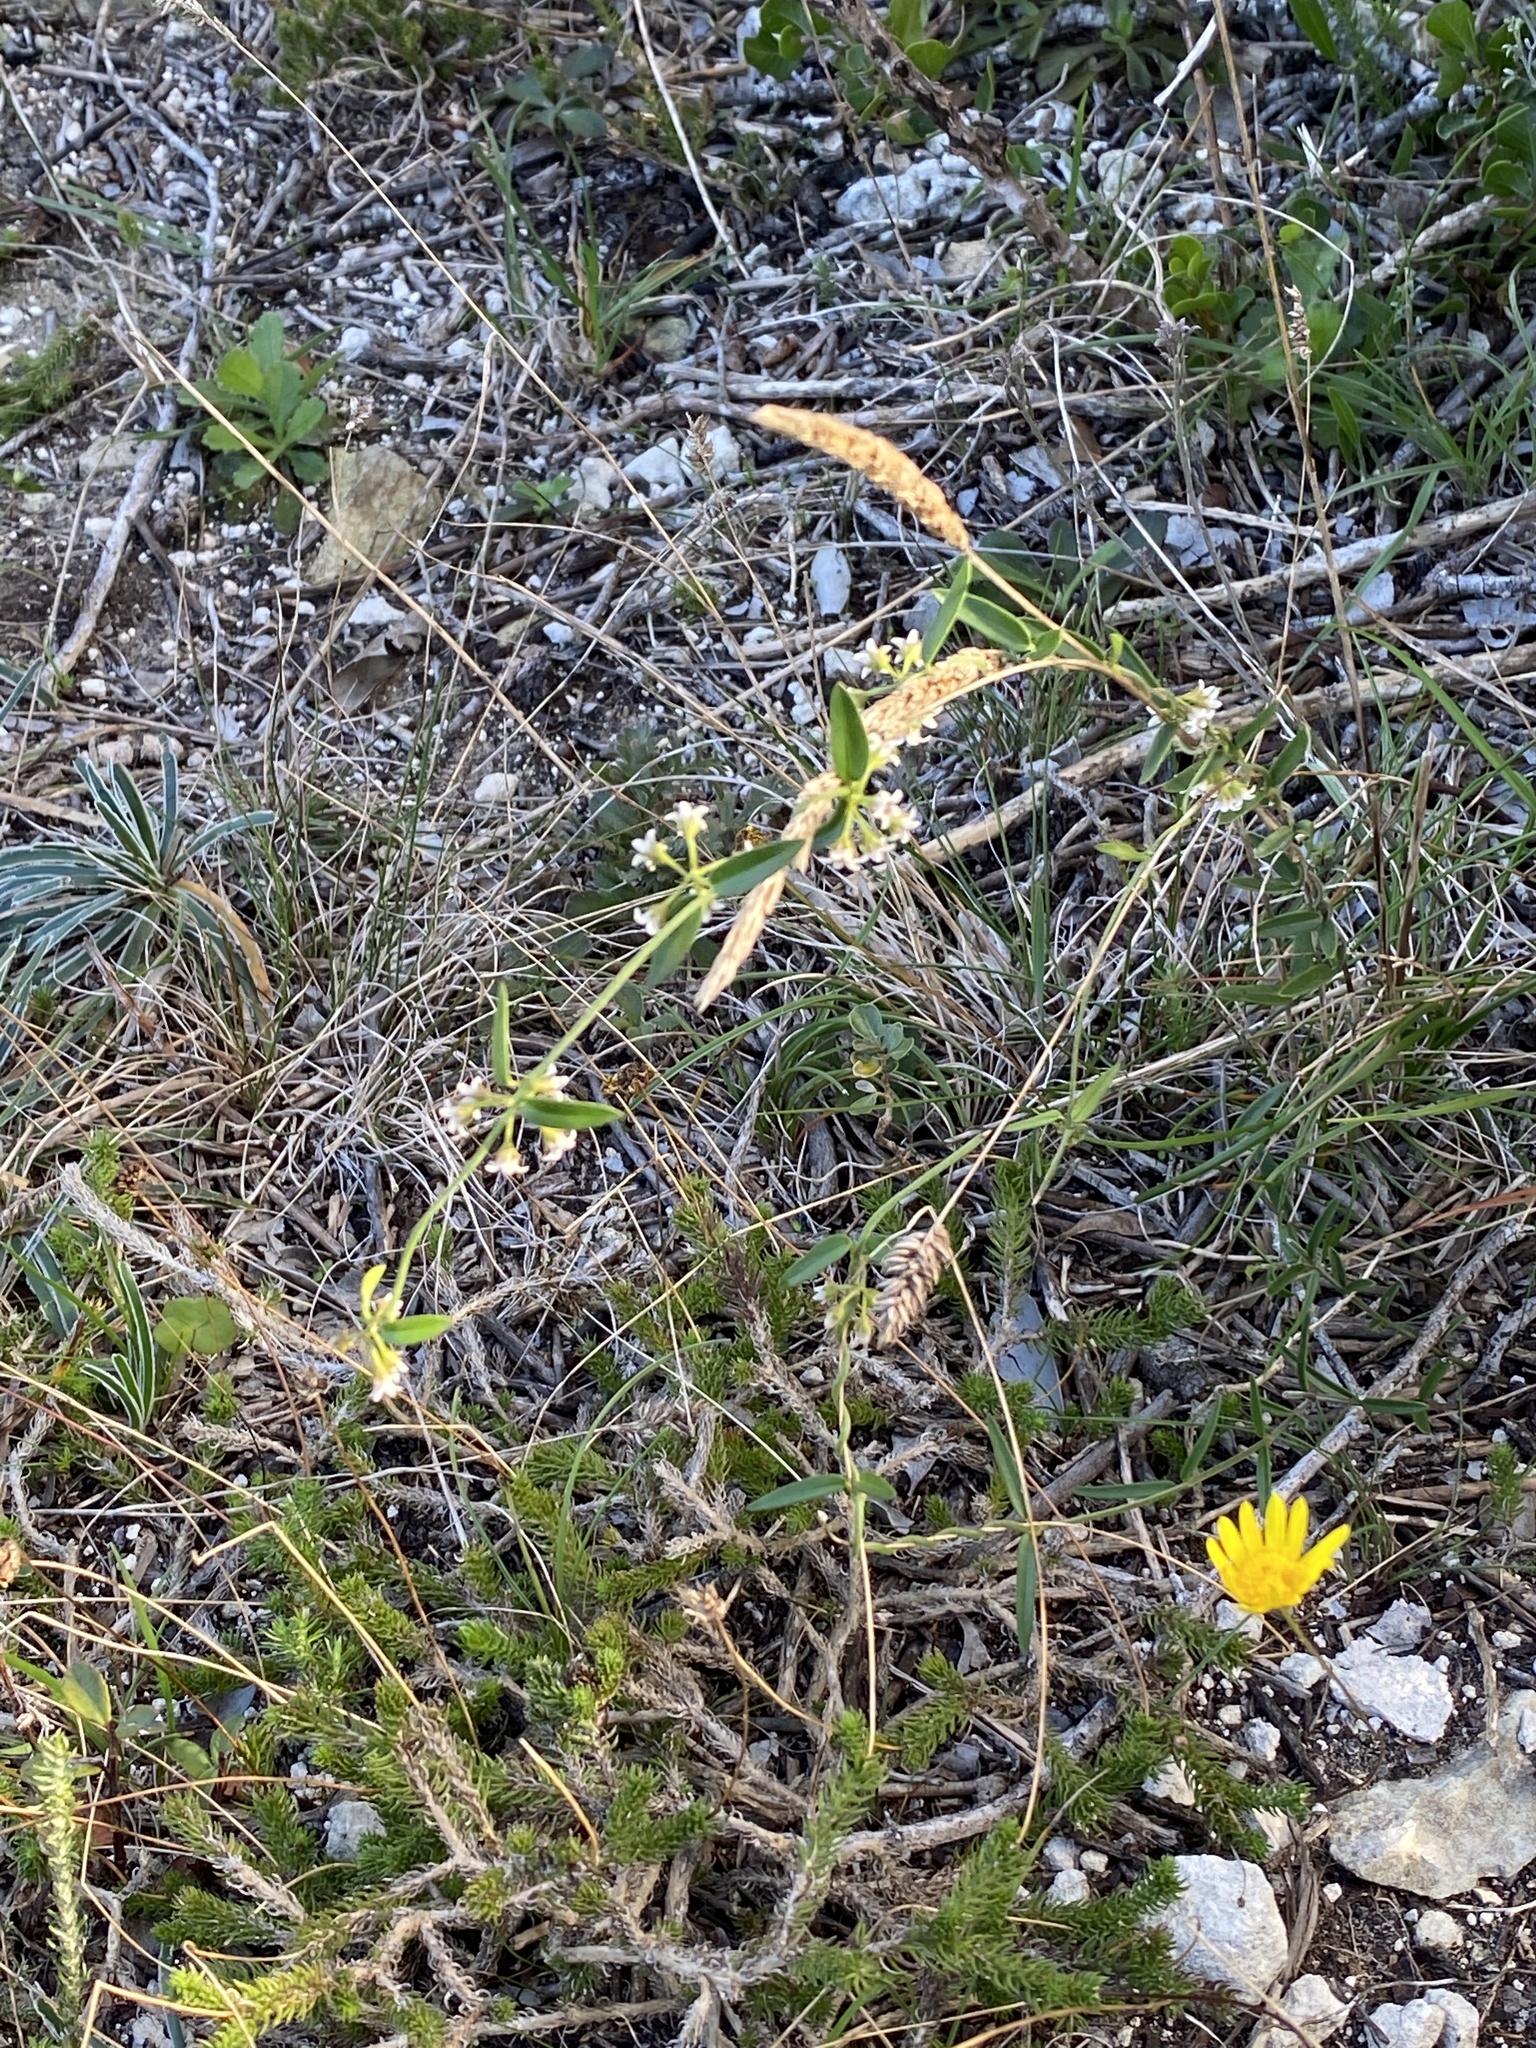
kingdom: Plantae
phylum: Tracheophyta
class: Magnoliopsida
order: Gentianales
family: Apocynaceae
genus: Astephanus
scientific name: Astephanus triflorus
